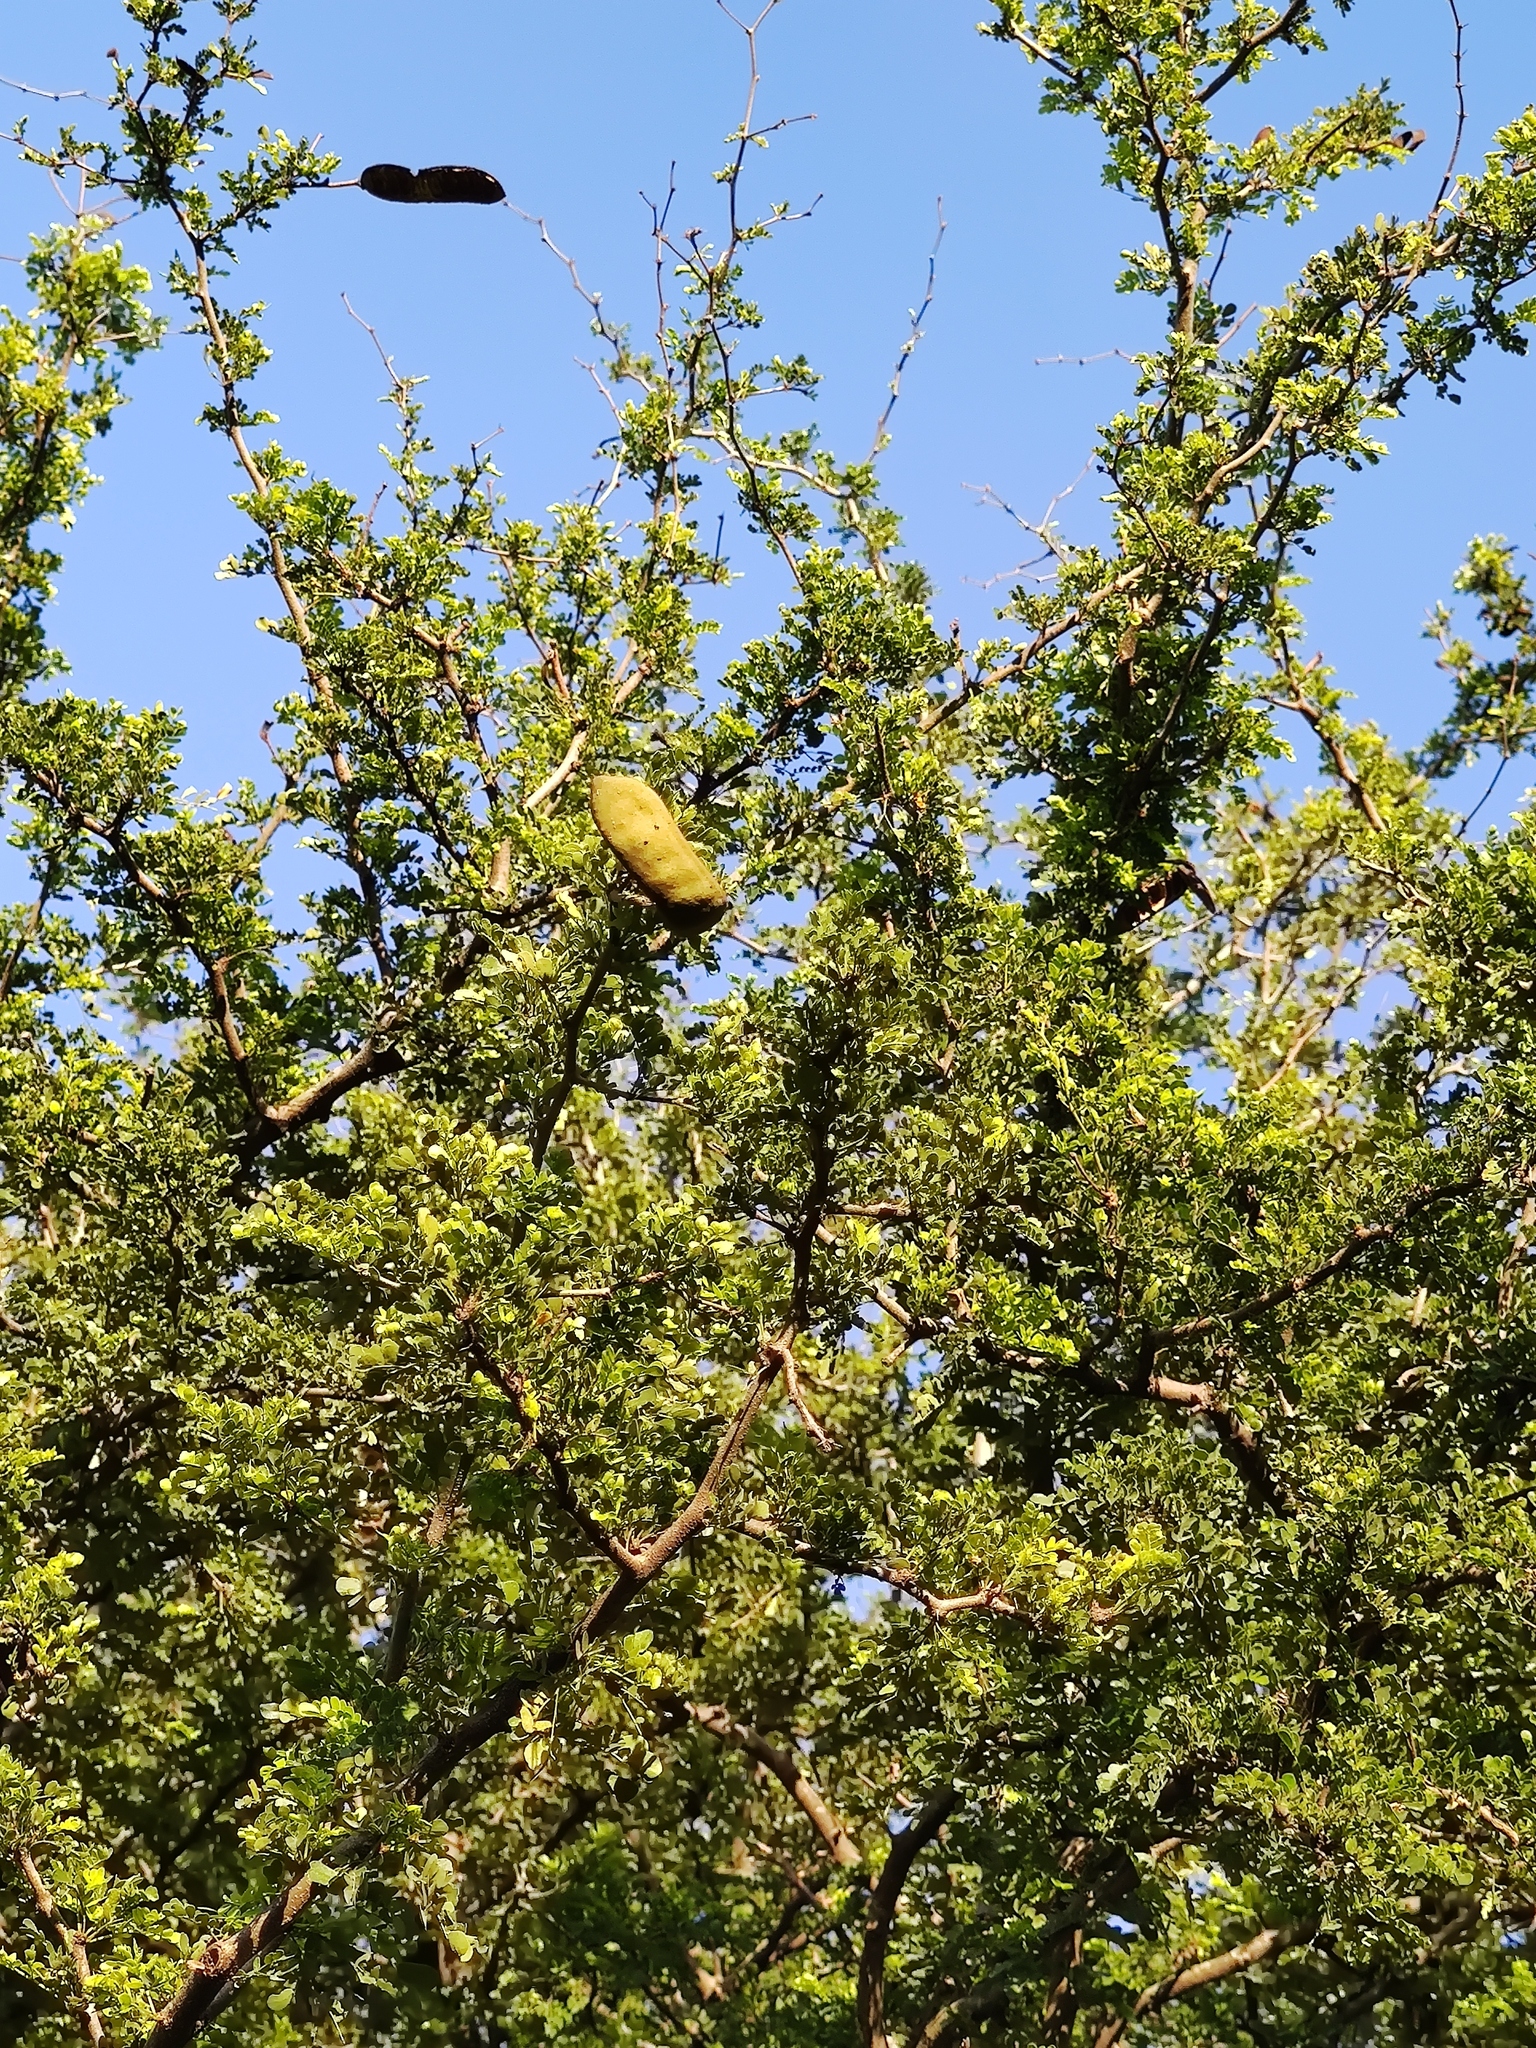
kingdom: Plantae
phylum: Tracheophyta
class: Magnoliopsida
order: Fabales
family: Fabaceae
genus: Ebenopsis
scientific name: Ebenopsis ebano
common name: Ebony blackbead
